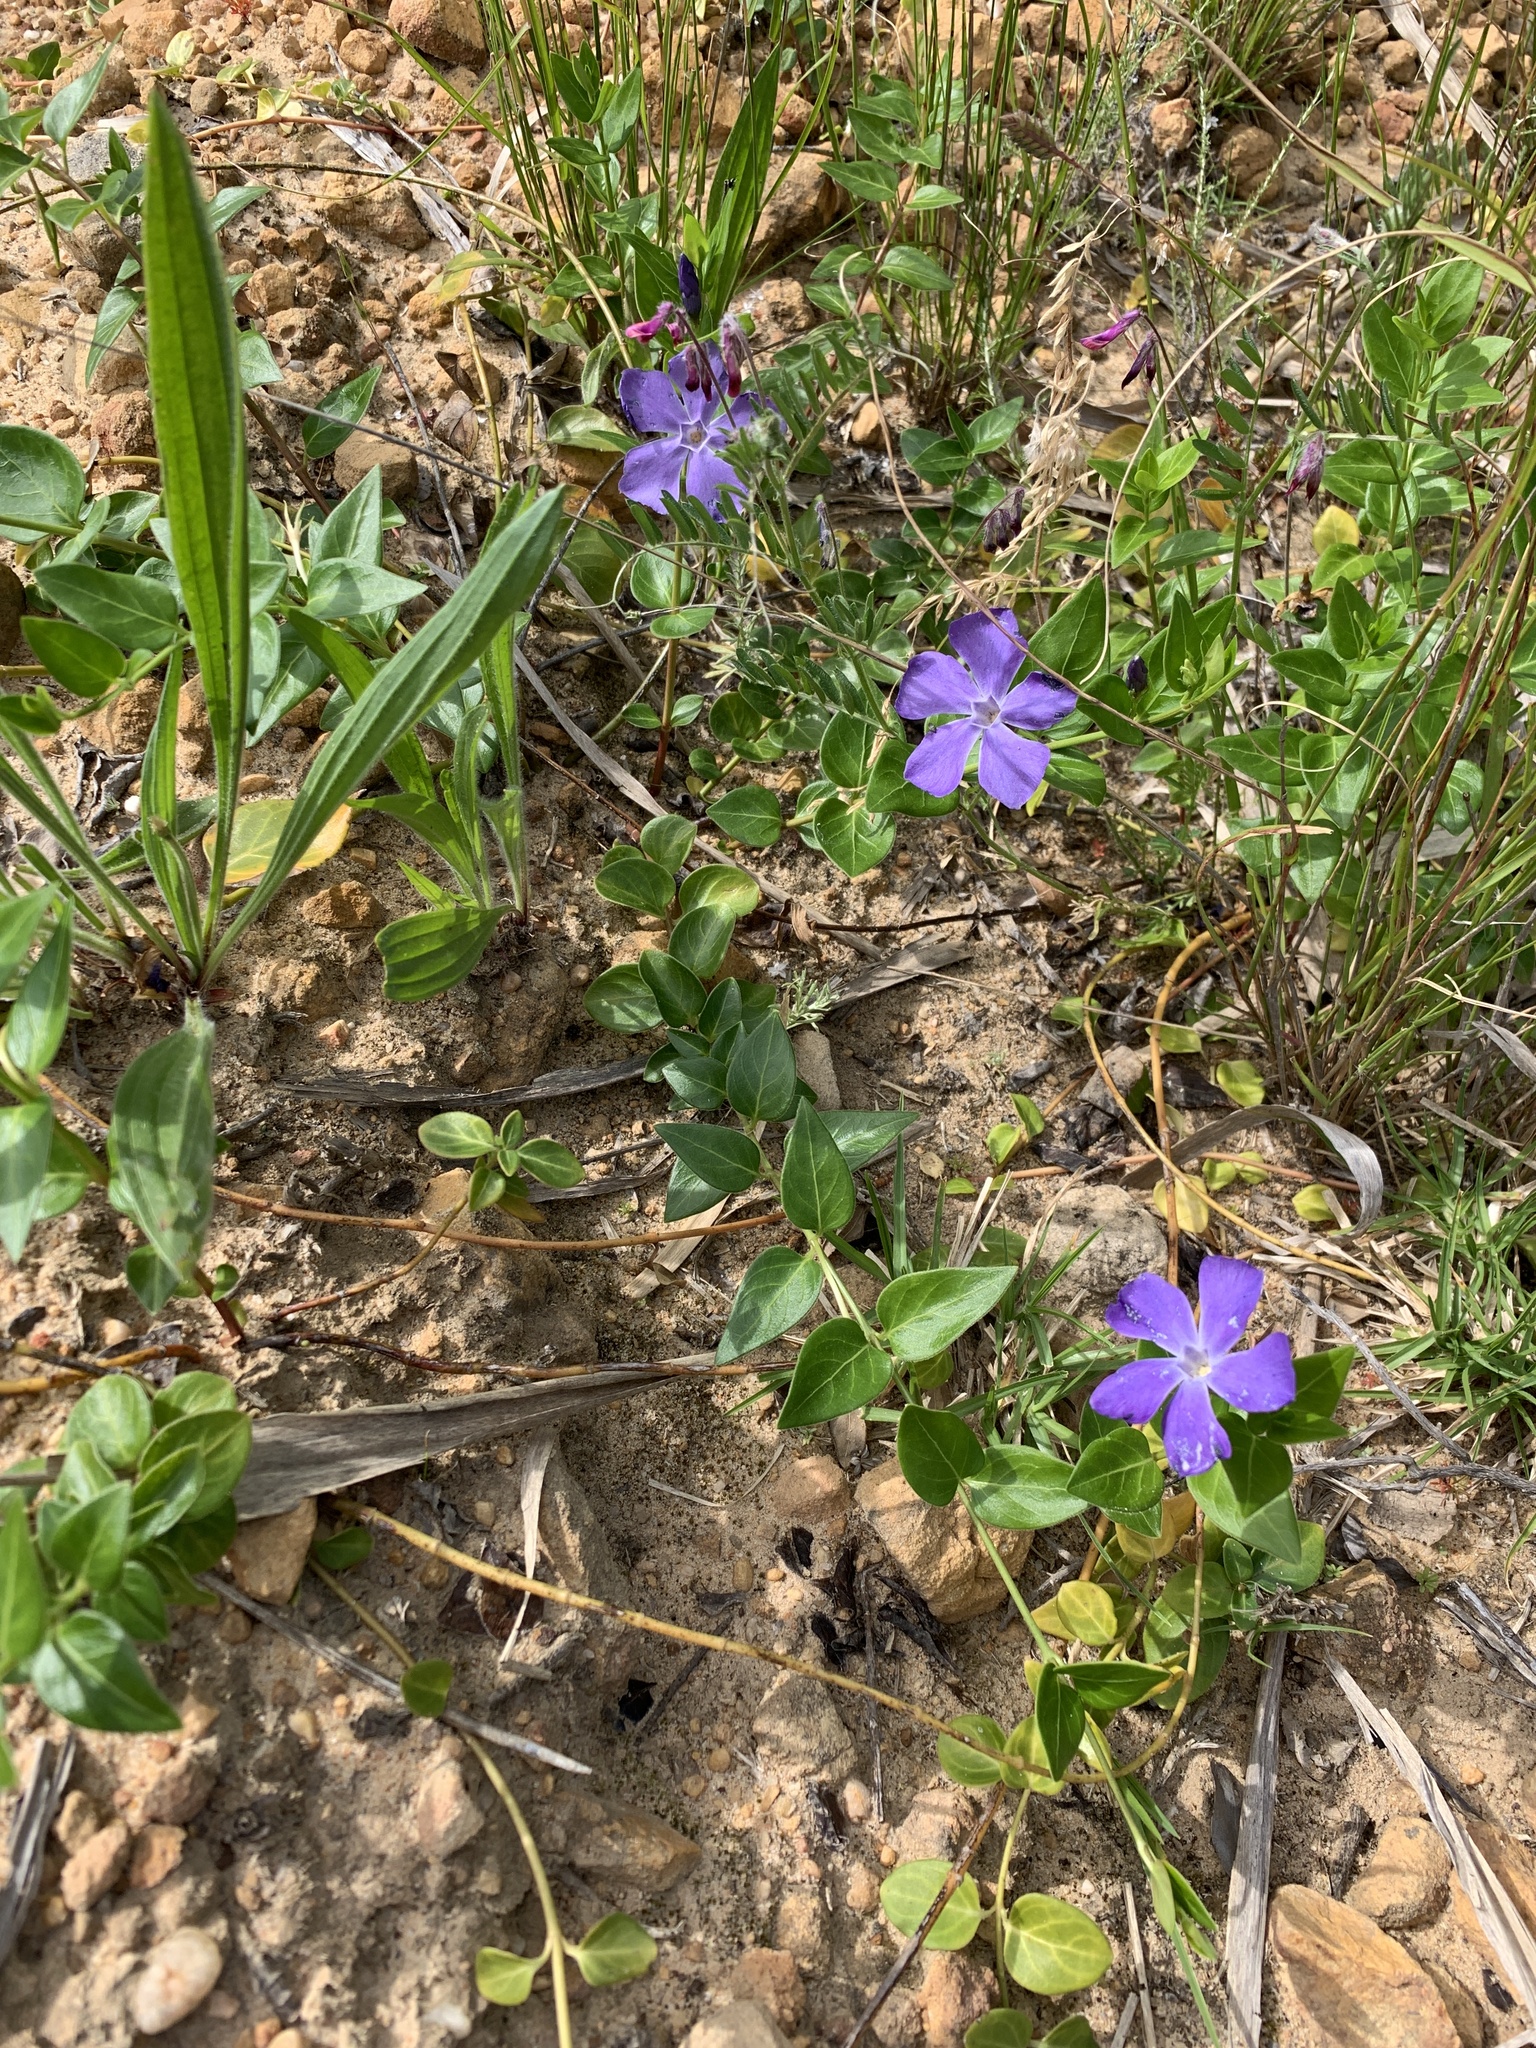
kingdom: Plantae
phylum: Tracheophyta
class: Magnoliopsida
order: Gentianales
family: Apocynaceae
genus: Vinca
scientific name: Vinca major
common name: Greater periwinkle
